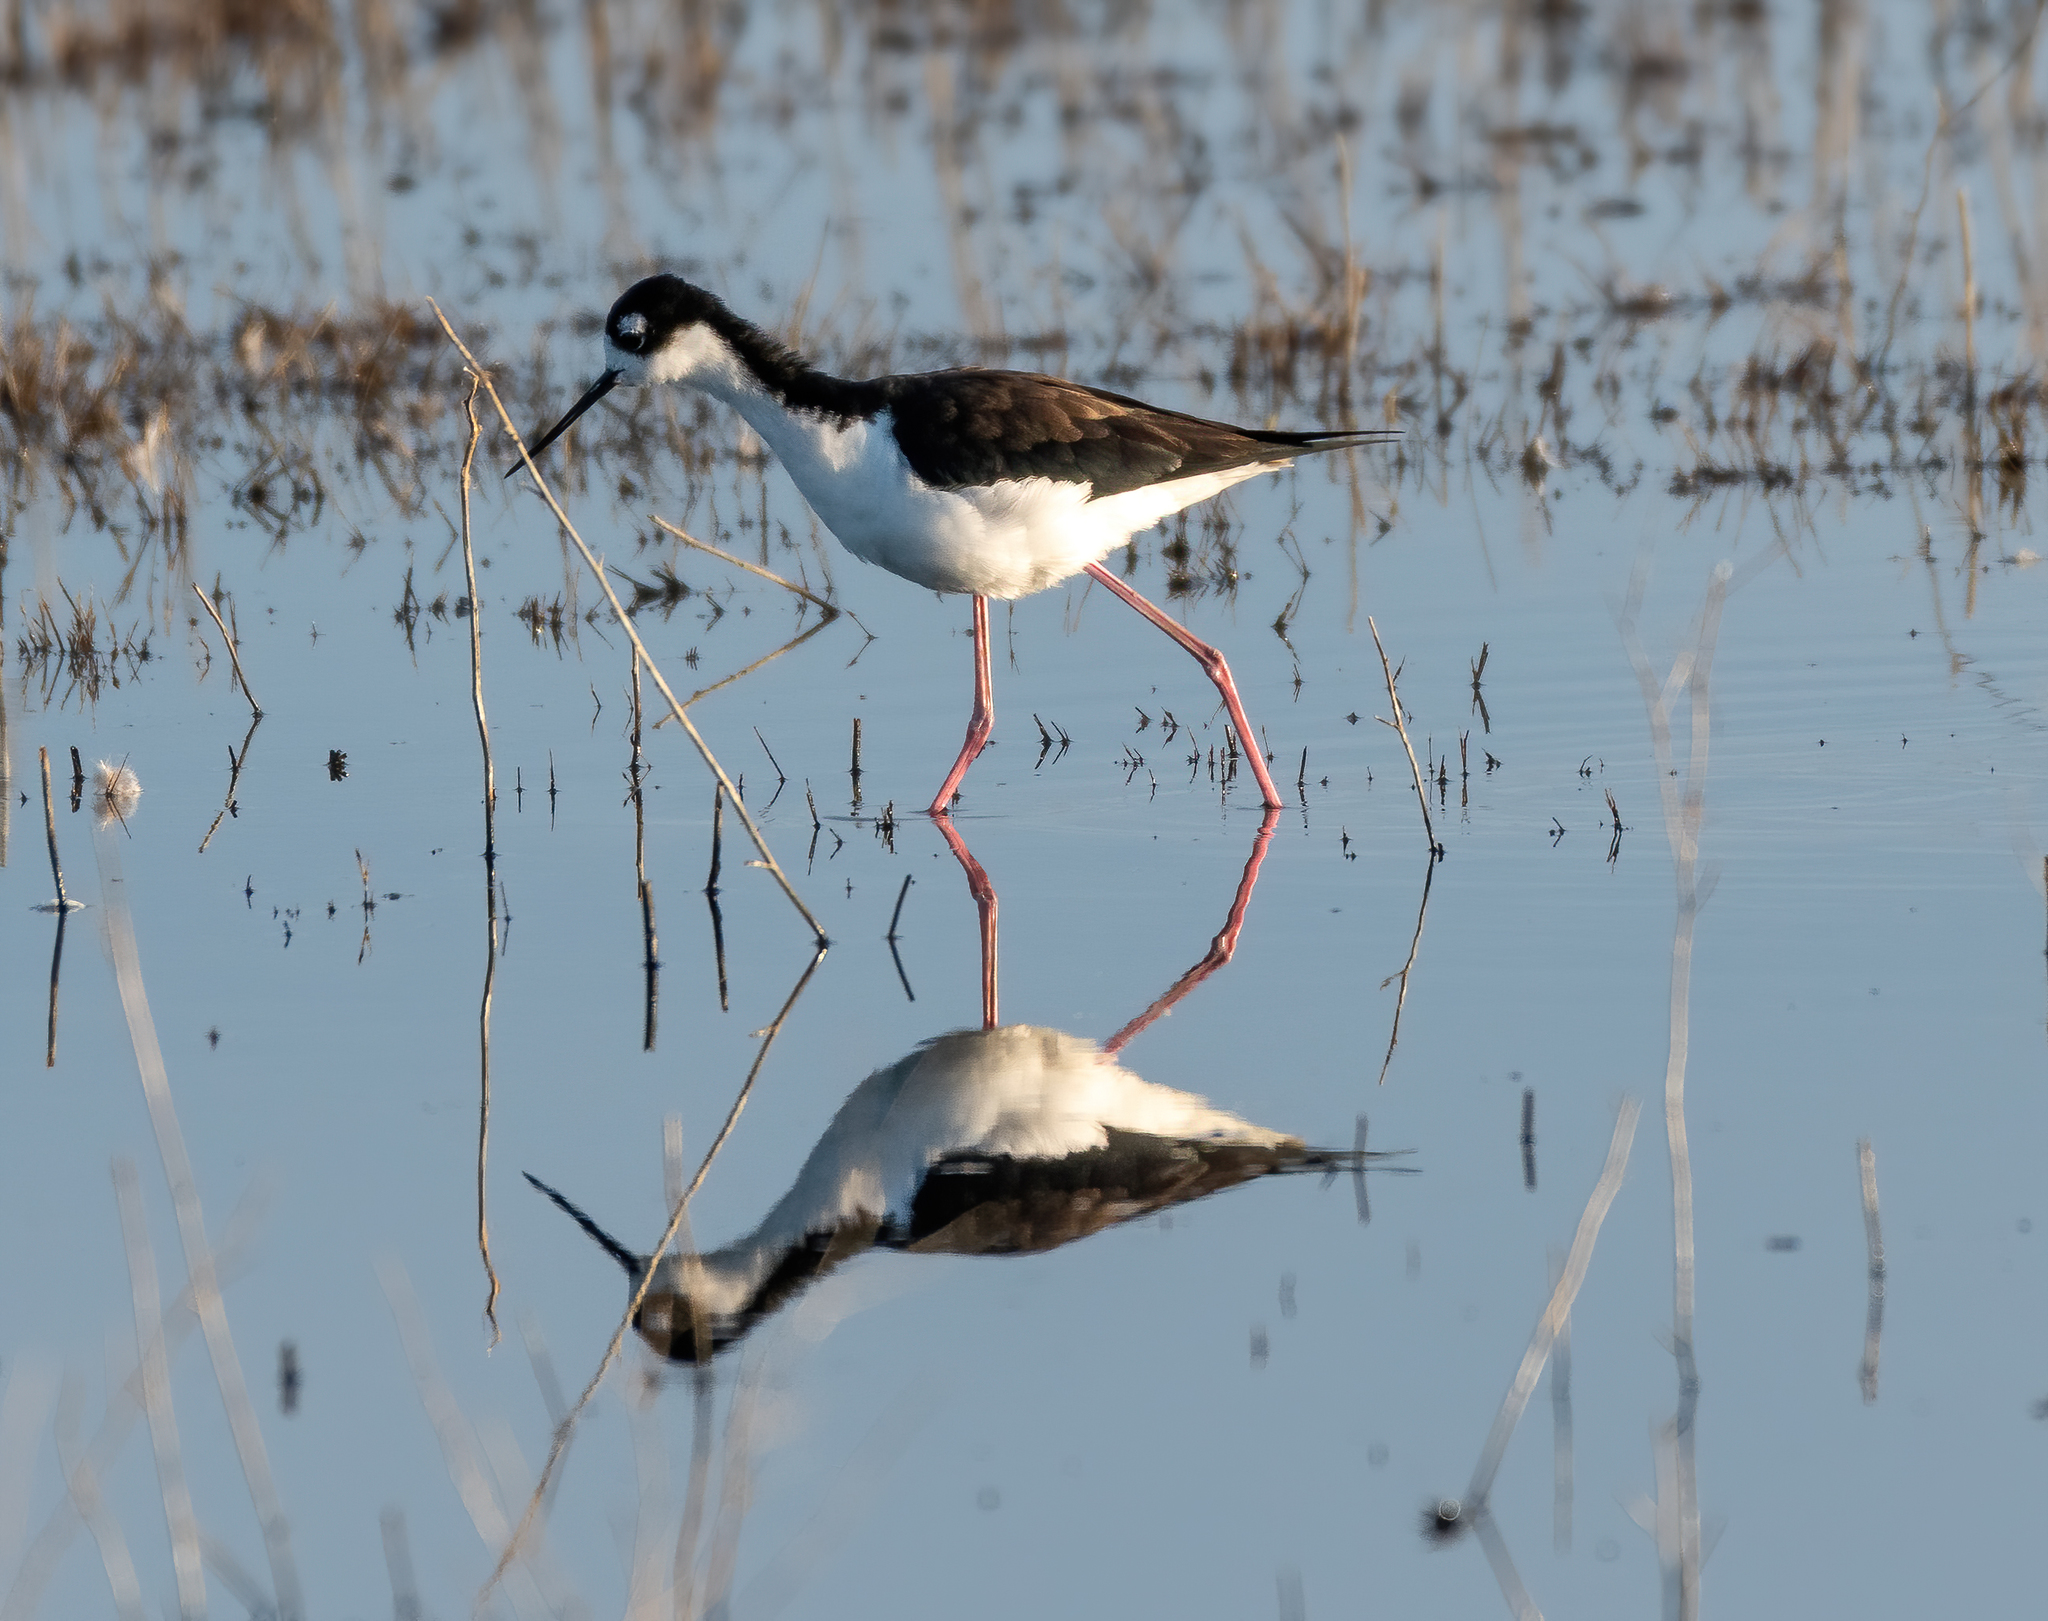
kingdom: Animalia
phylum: Chordata
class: Aves
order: Charadriiformes
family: Recurvirostridae
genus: Himantopus
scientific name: Himantopus mexicanus
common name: Black-necked stilt
